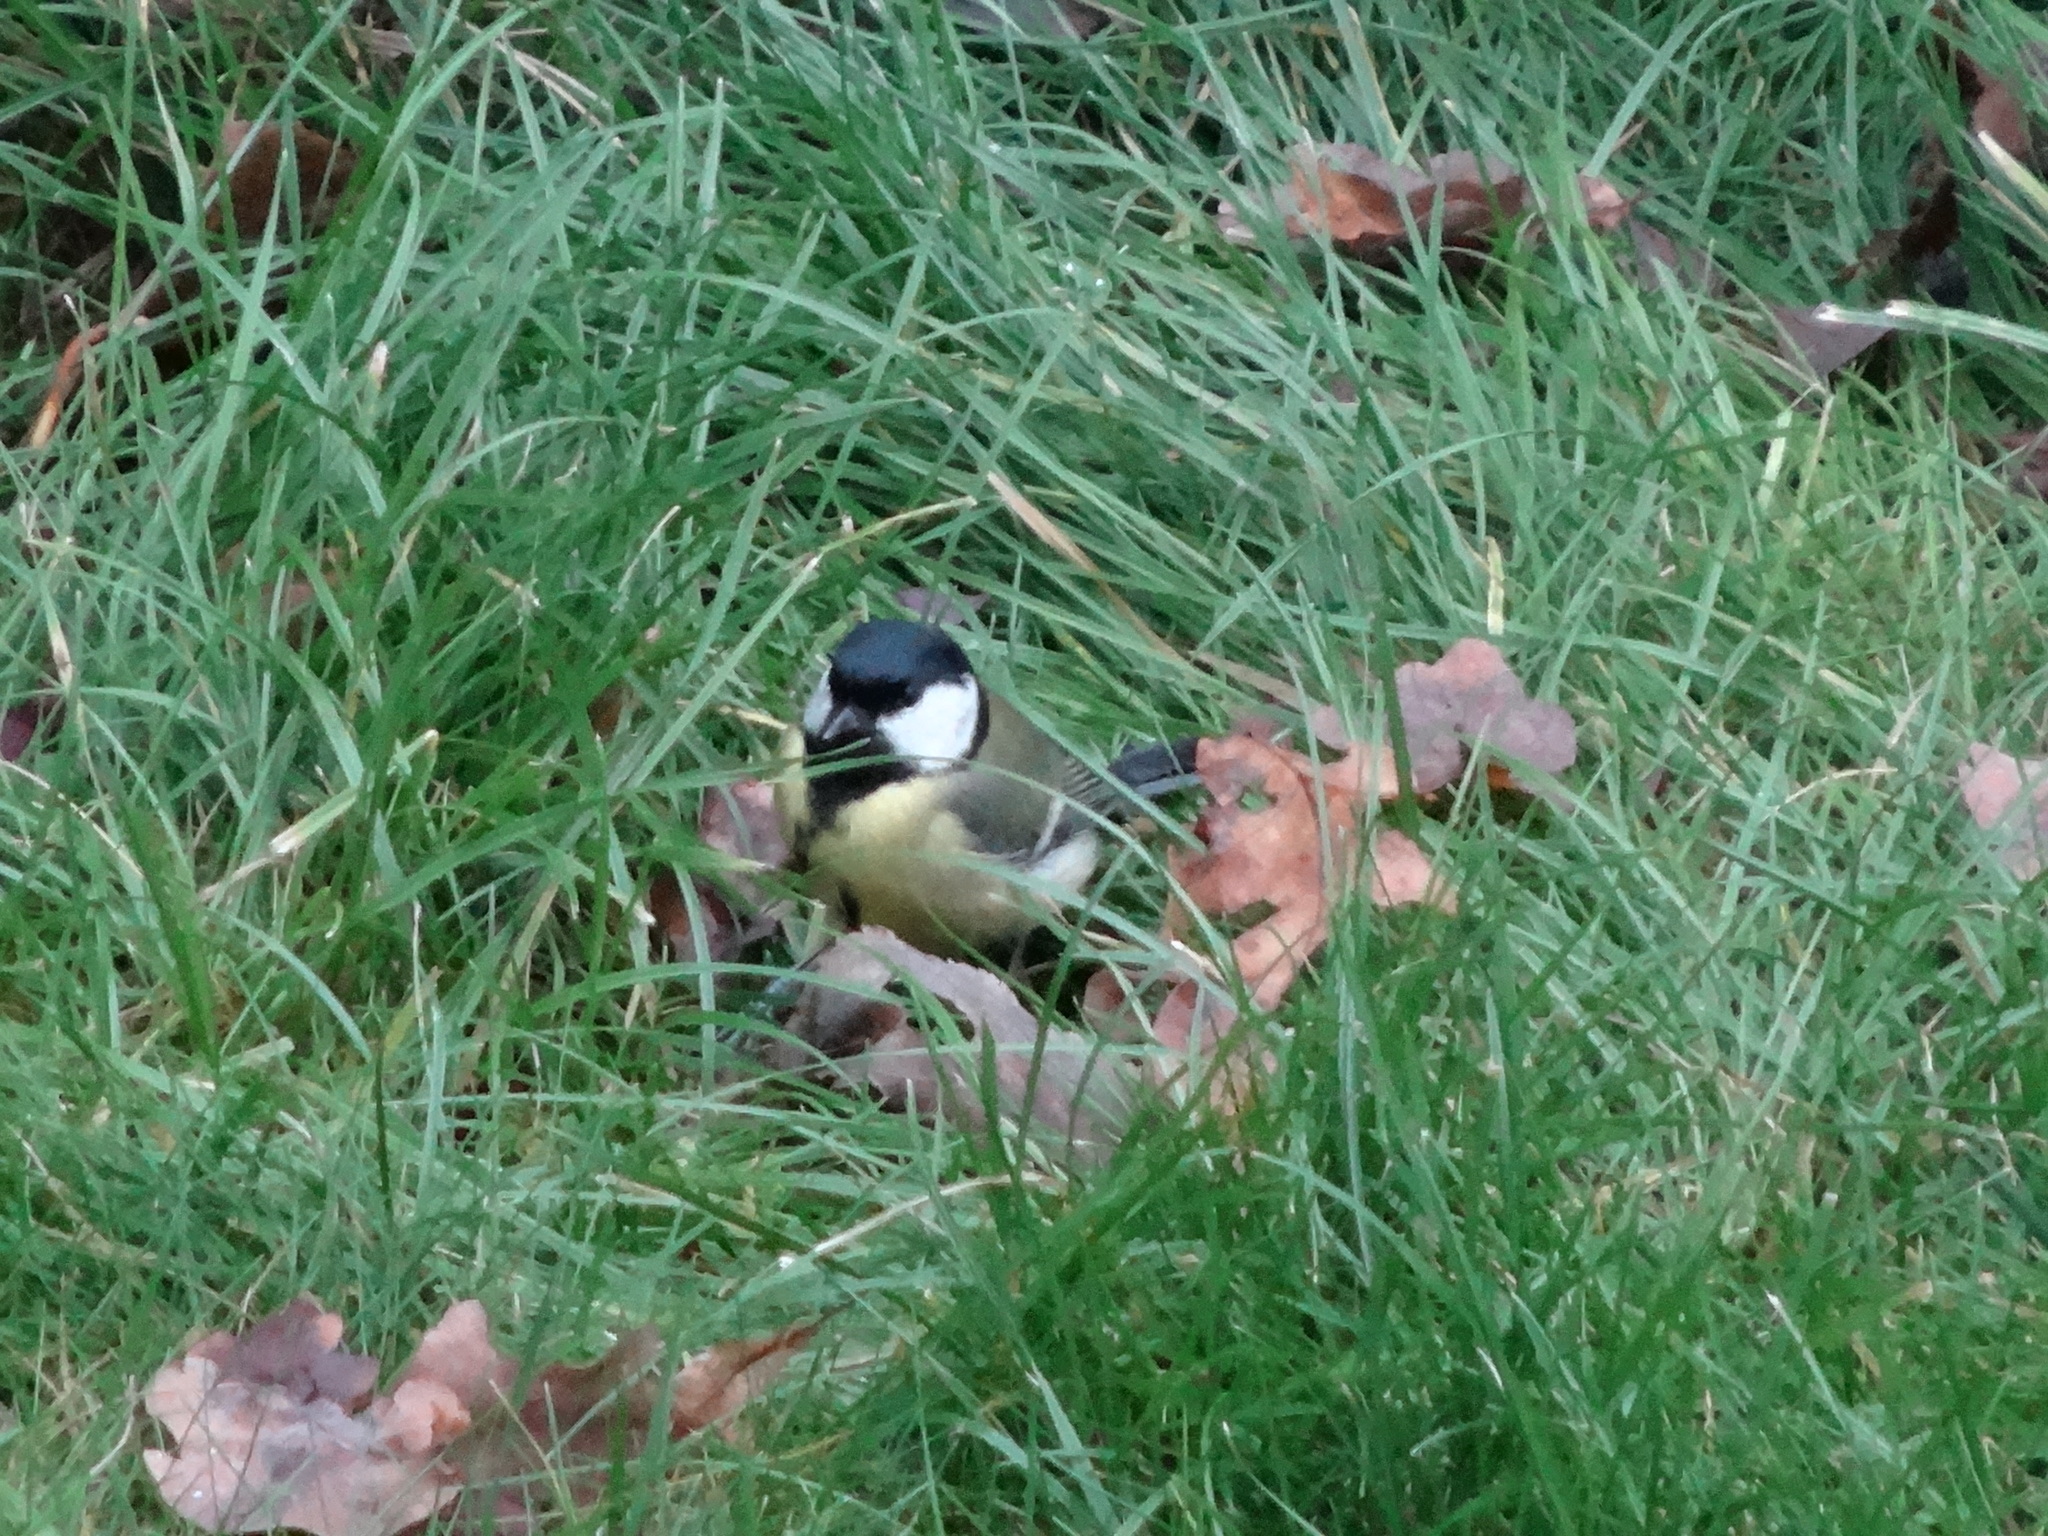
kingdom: Animalia
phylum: Chordata
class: Aves
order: Passeriformes
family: Paridae
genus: Parus
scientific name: Parus major
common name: Great tit
